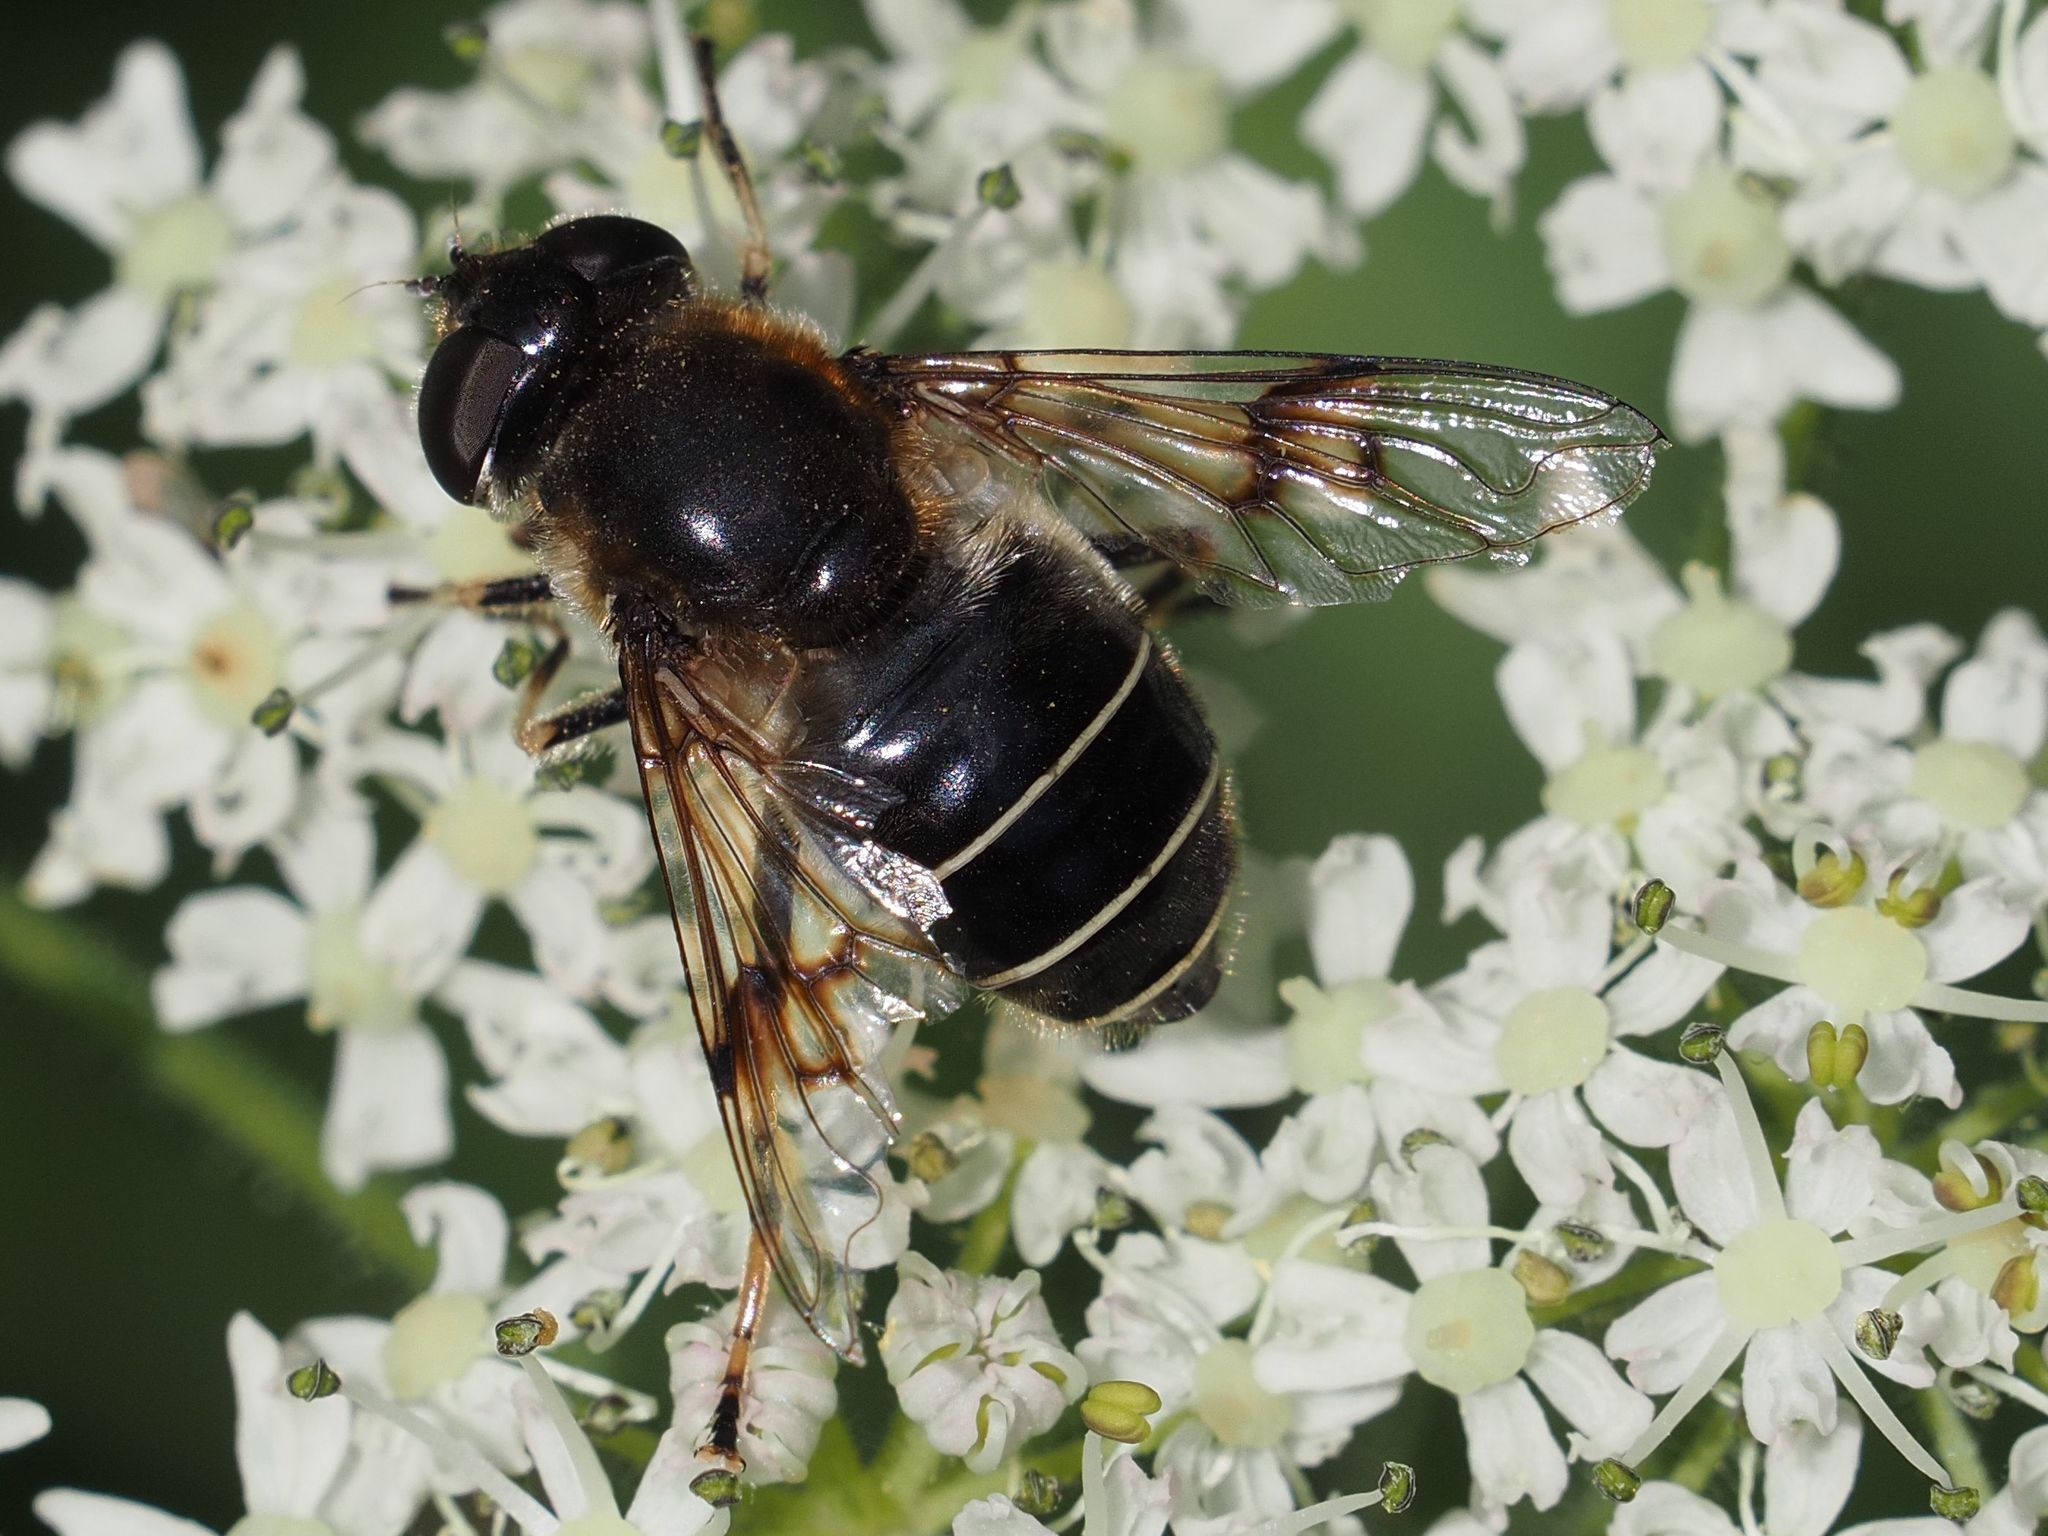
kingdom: Animalia
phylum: Arthropoda
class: Insecta
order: Diptera
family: Syrphidae
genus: Eristalis
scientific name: Eristalis rupium
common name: Hover fly
